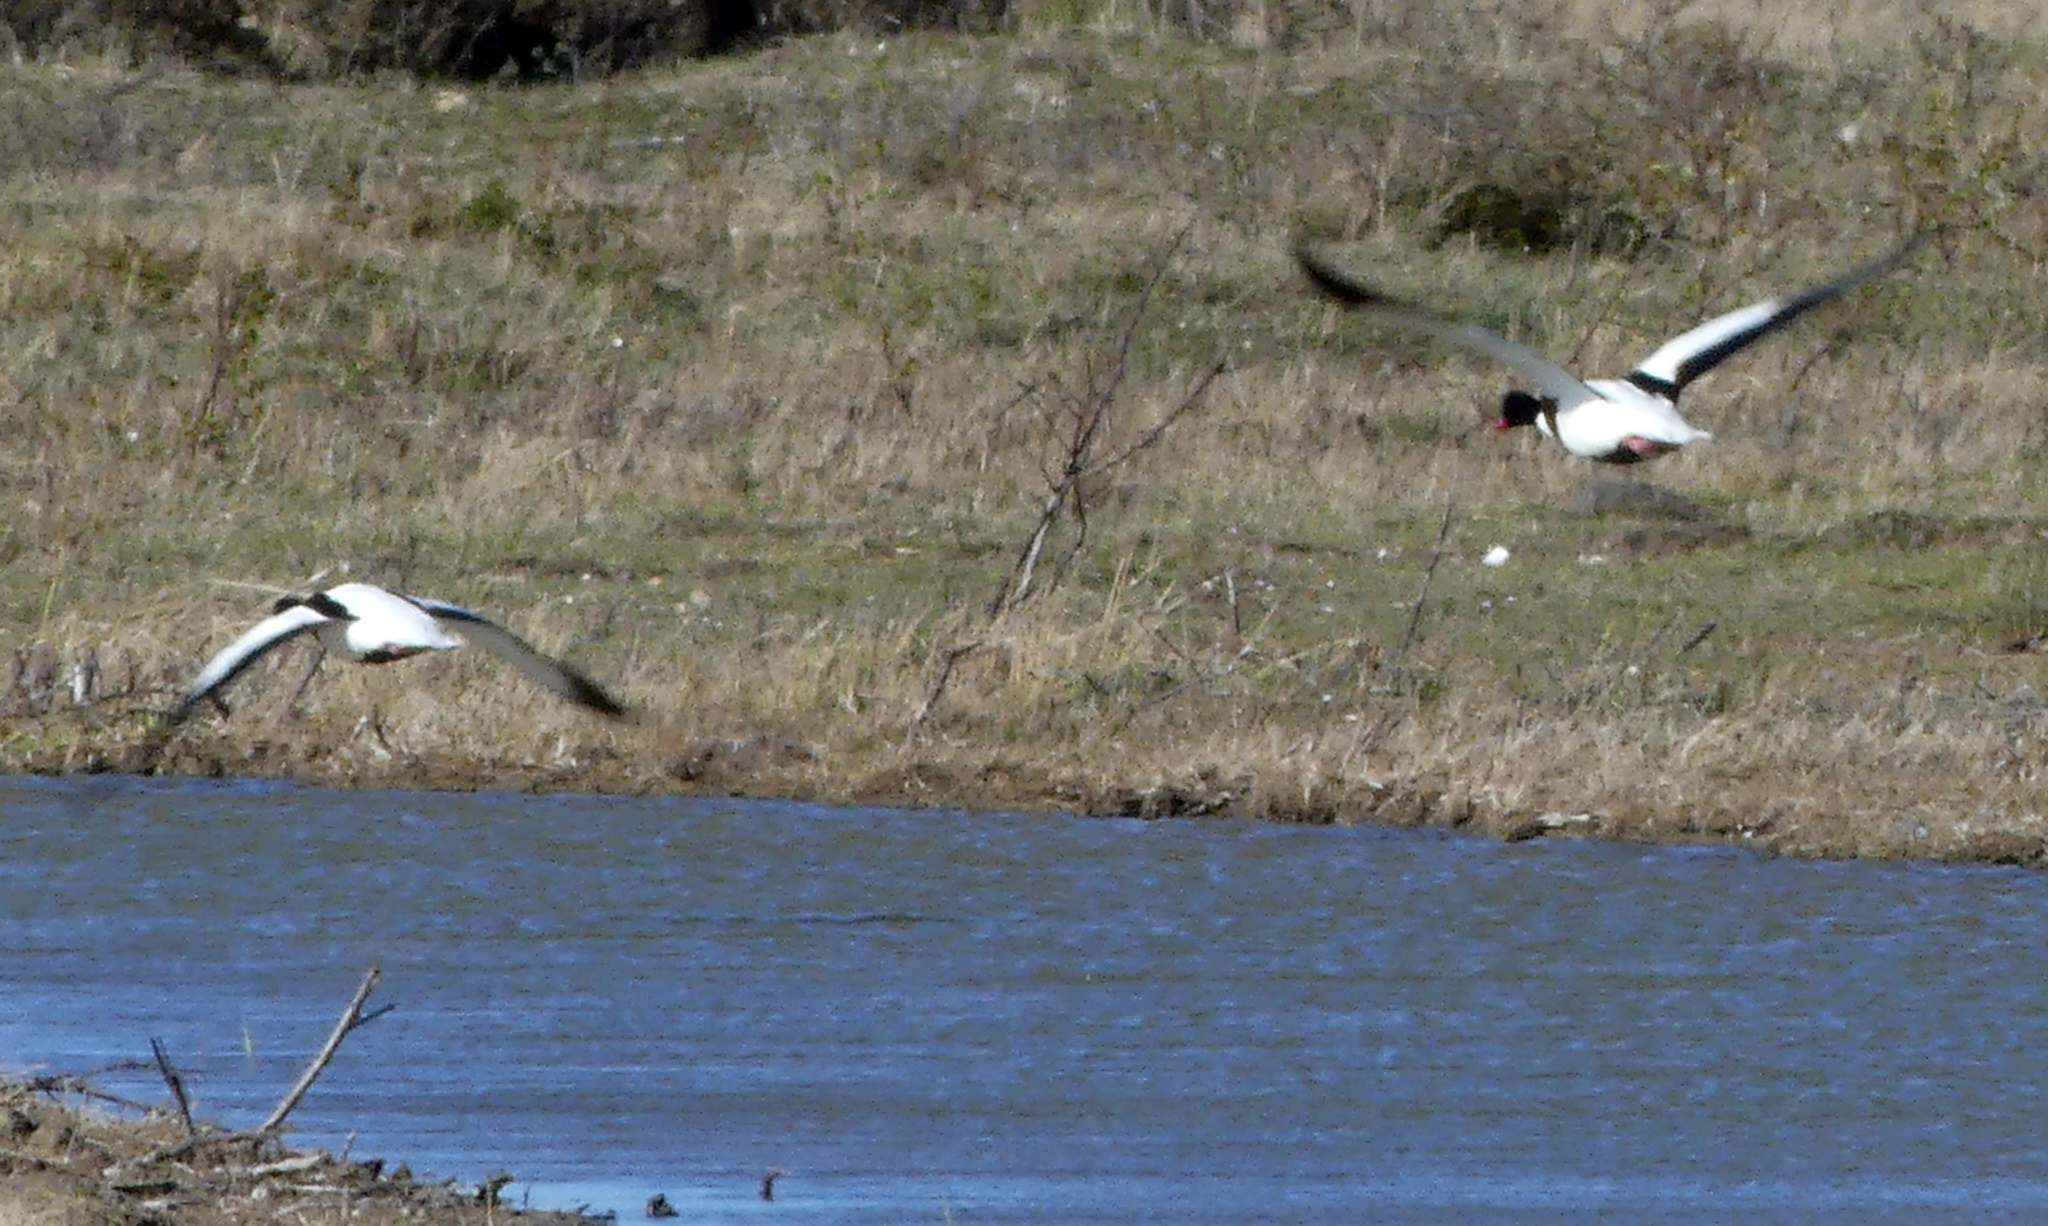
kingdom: Animalia
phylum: Chordata
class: Aves
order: Anseriformes
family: Anatidae
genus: Tadorna
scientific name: Tadorna tadorna
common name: Common shelduck
